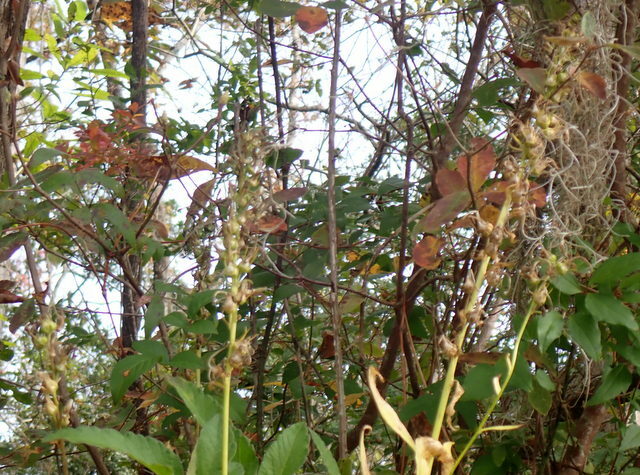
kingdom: Plantae
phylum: Tracheophyta
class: Magnoliopsida
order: Asterales
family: Campanulaceae
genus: Lobelia
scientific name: Lobelia cardinalis
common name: Cardinal flower
